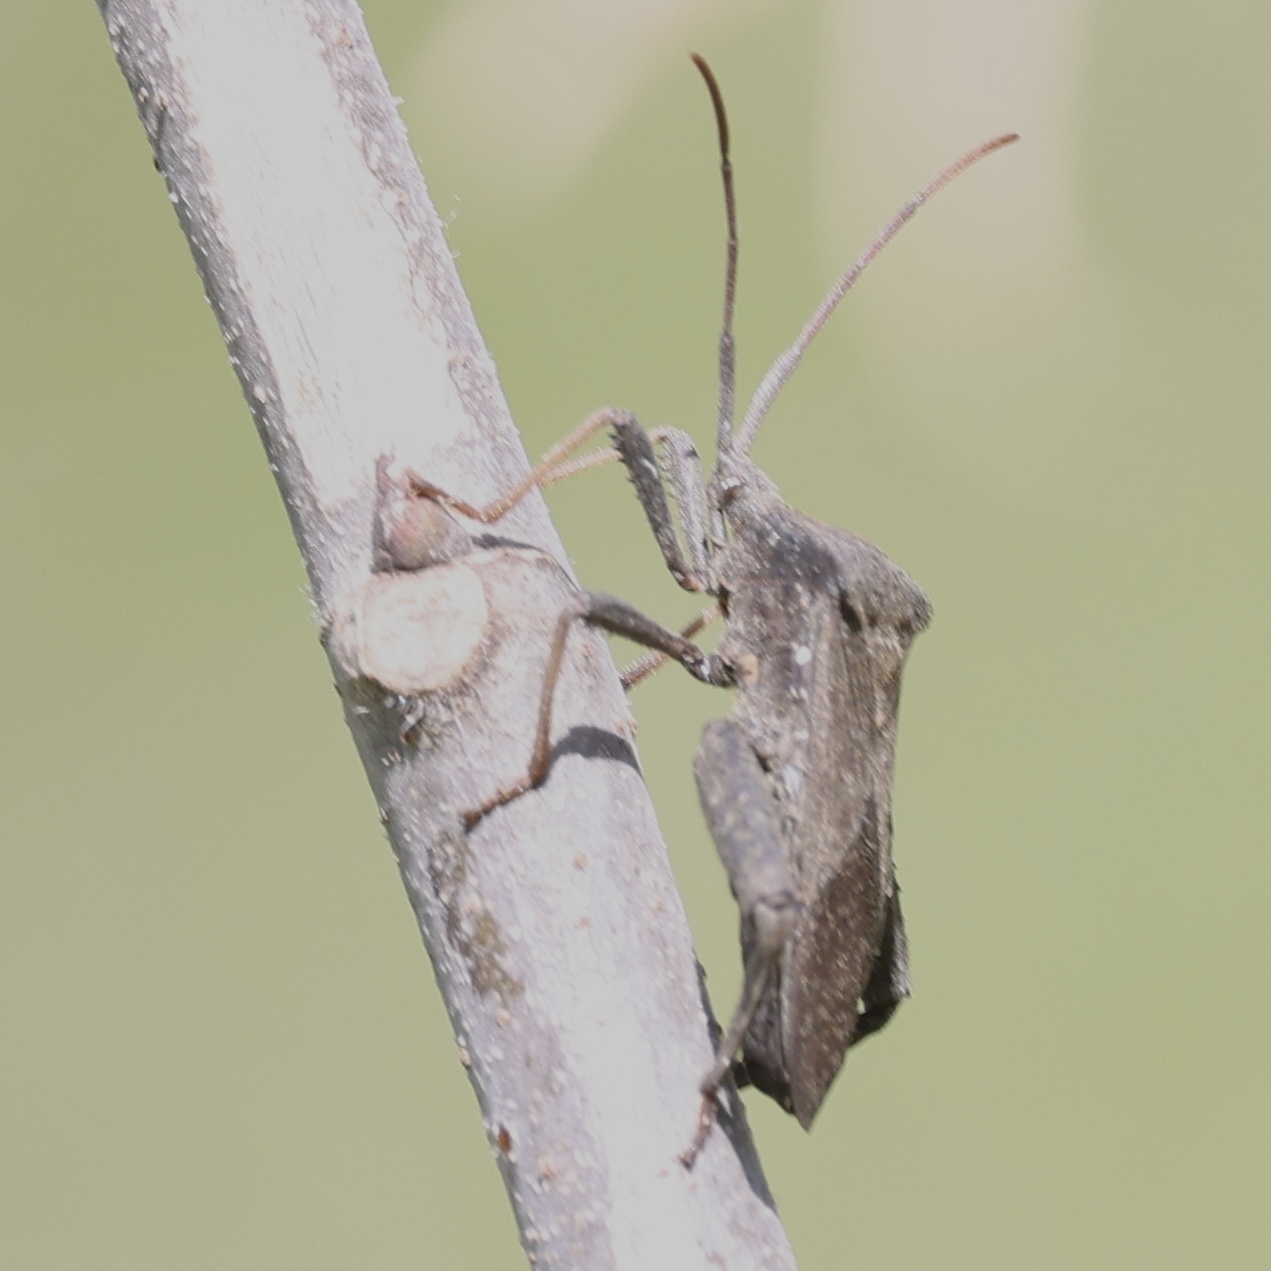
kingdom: Animalia
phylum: Arthropoda
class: Insecta
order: Hemiptera
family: Coreidae
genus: Acanthocephala
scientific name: Acanthocephala femorata
